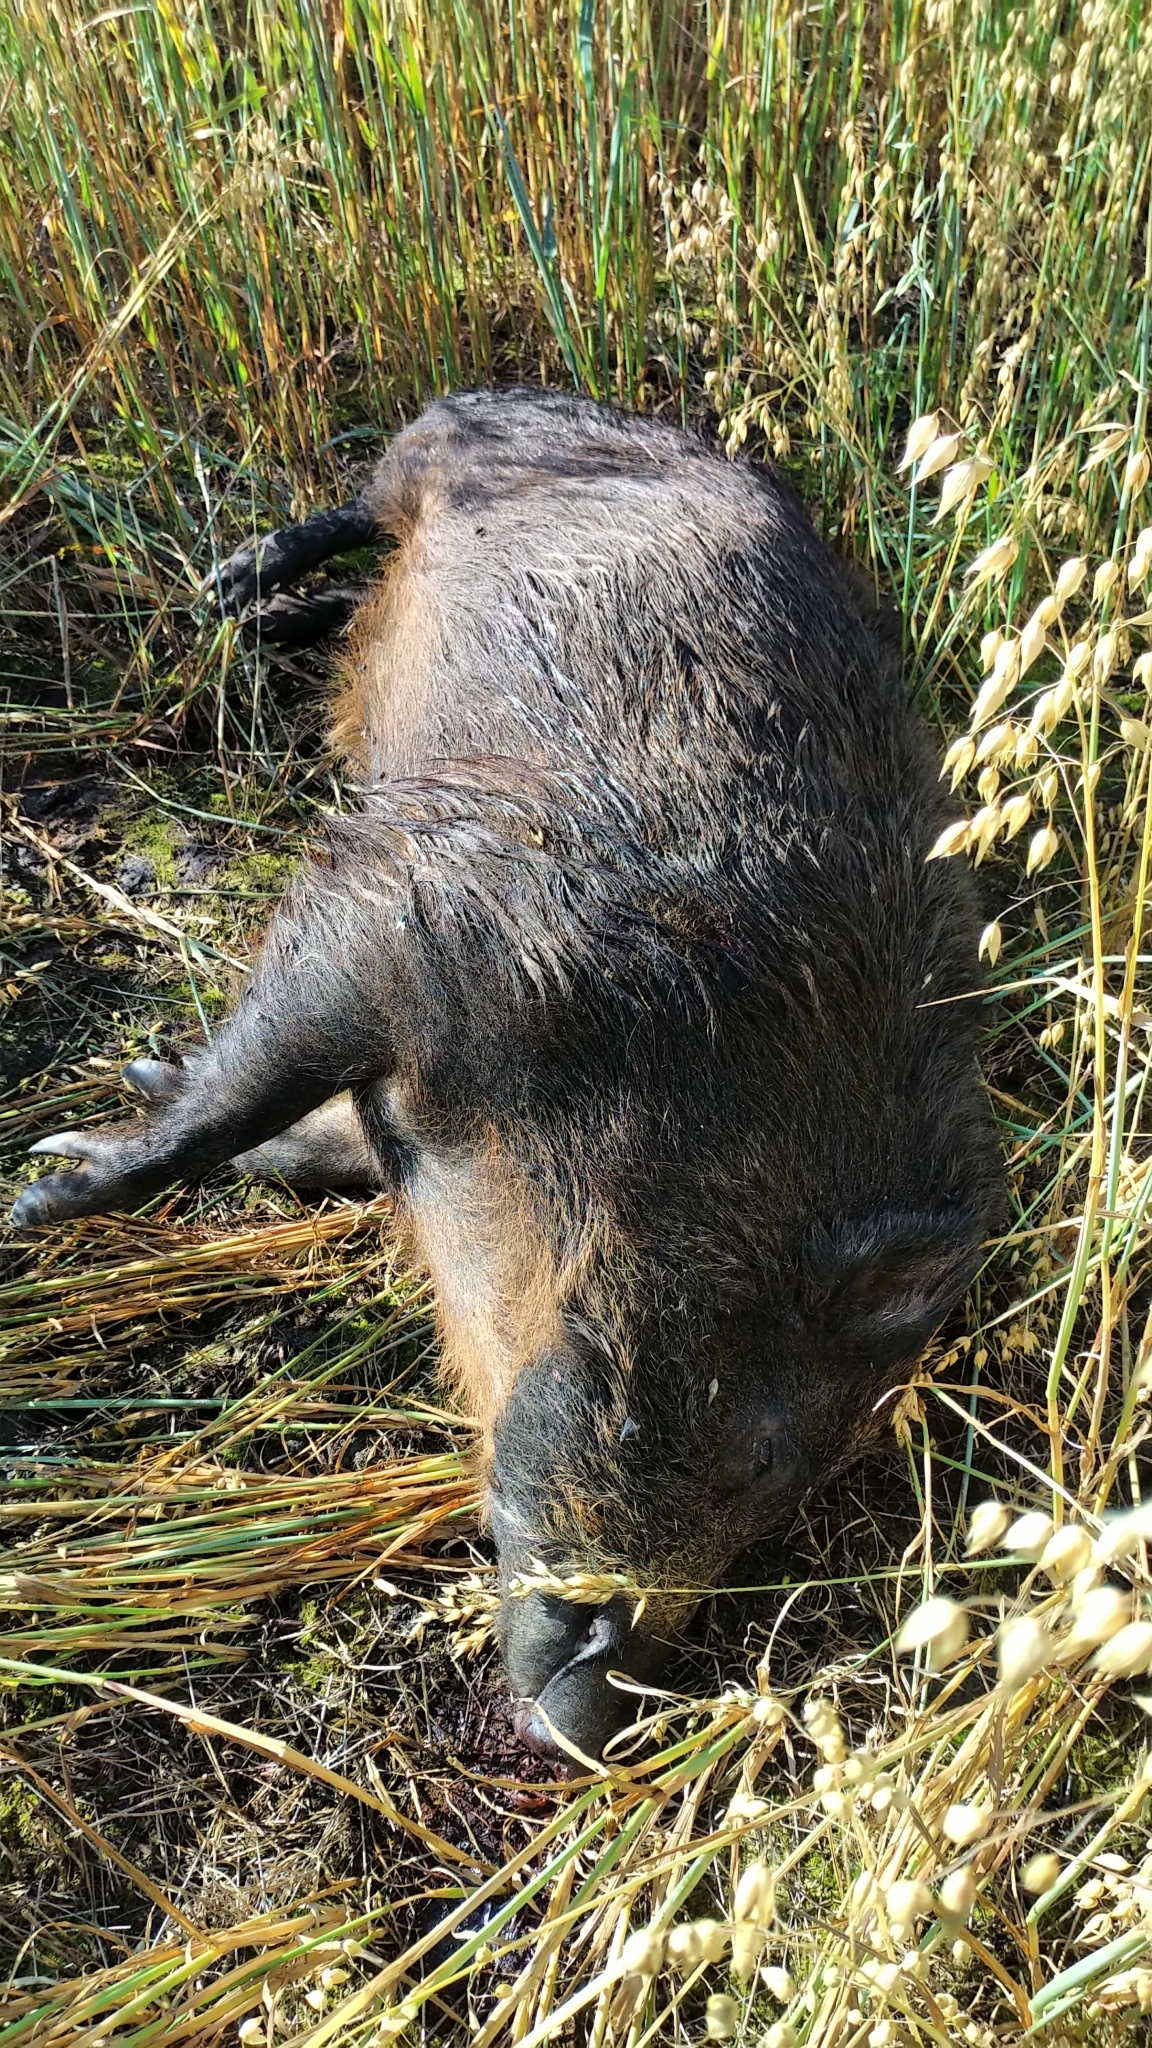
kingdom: Animalia
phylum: Chordata
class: Mammalia
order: Artiodactyla
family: Suidae
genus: Sus
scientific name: Sus scrofa
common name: Wild boar
